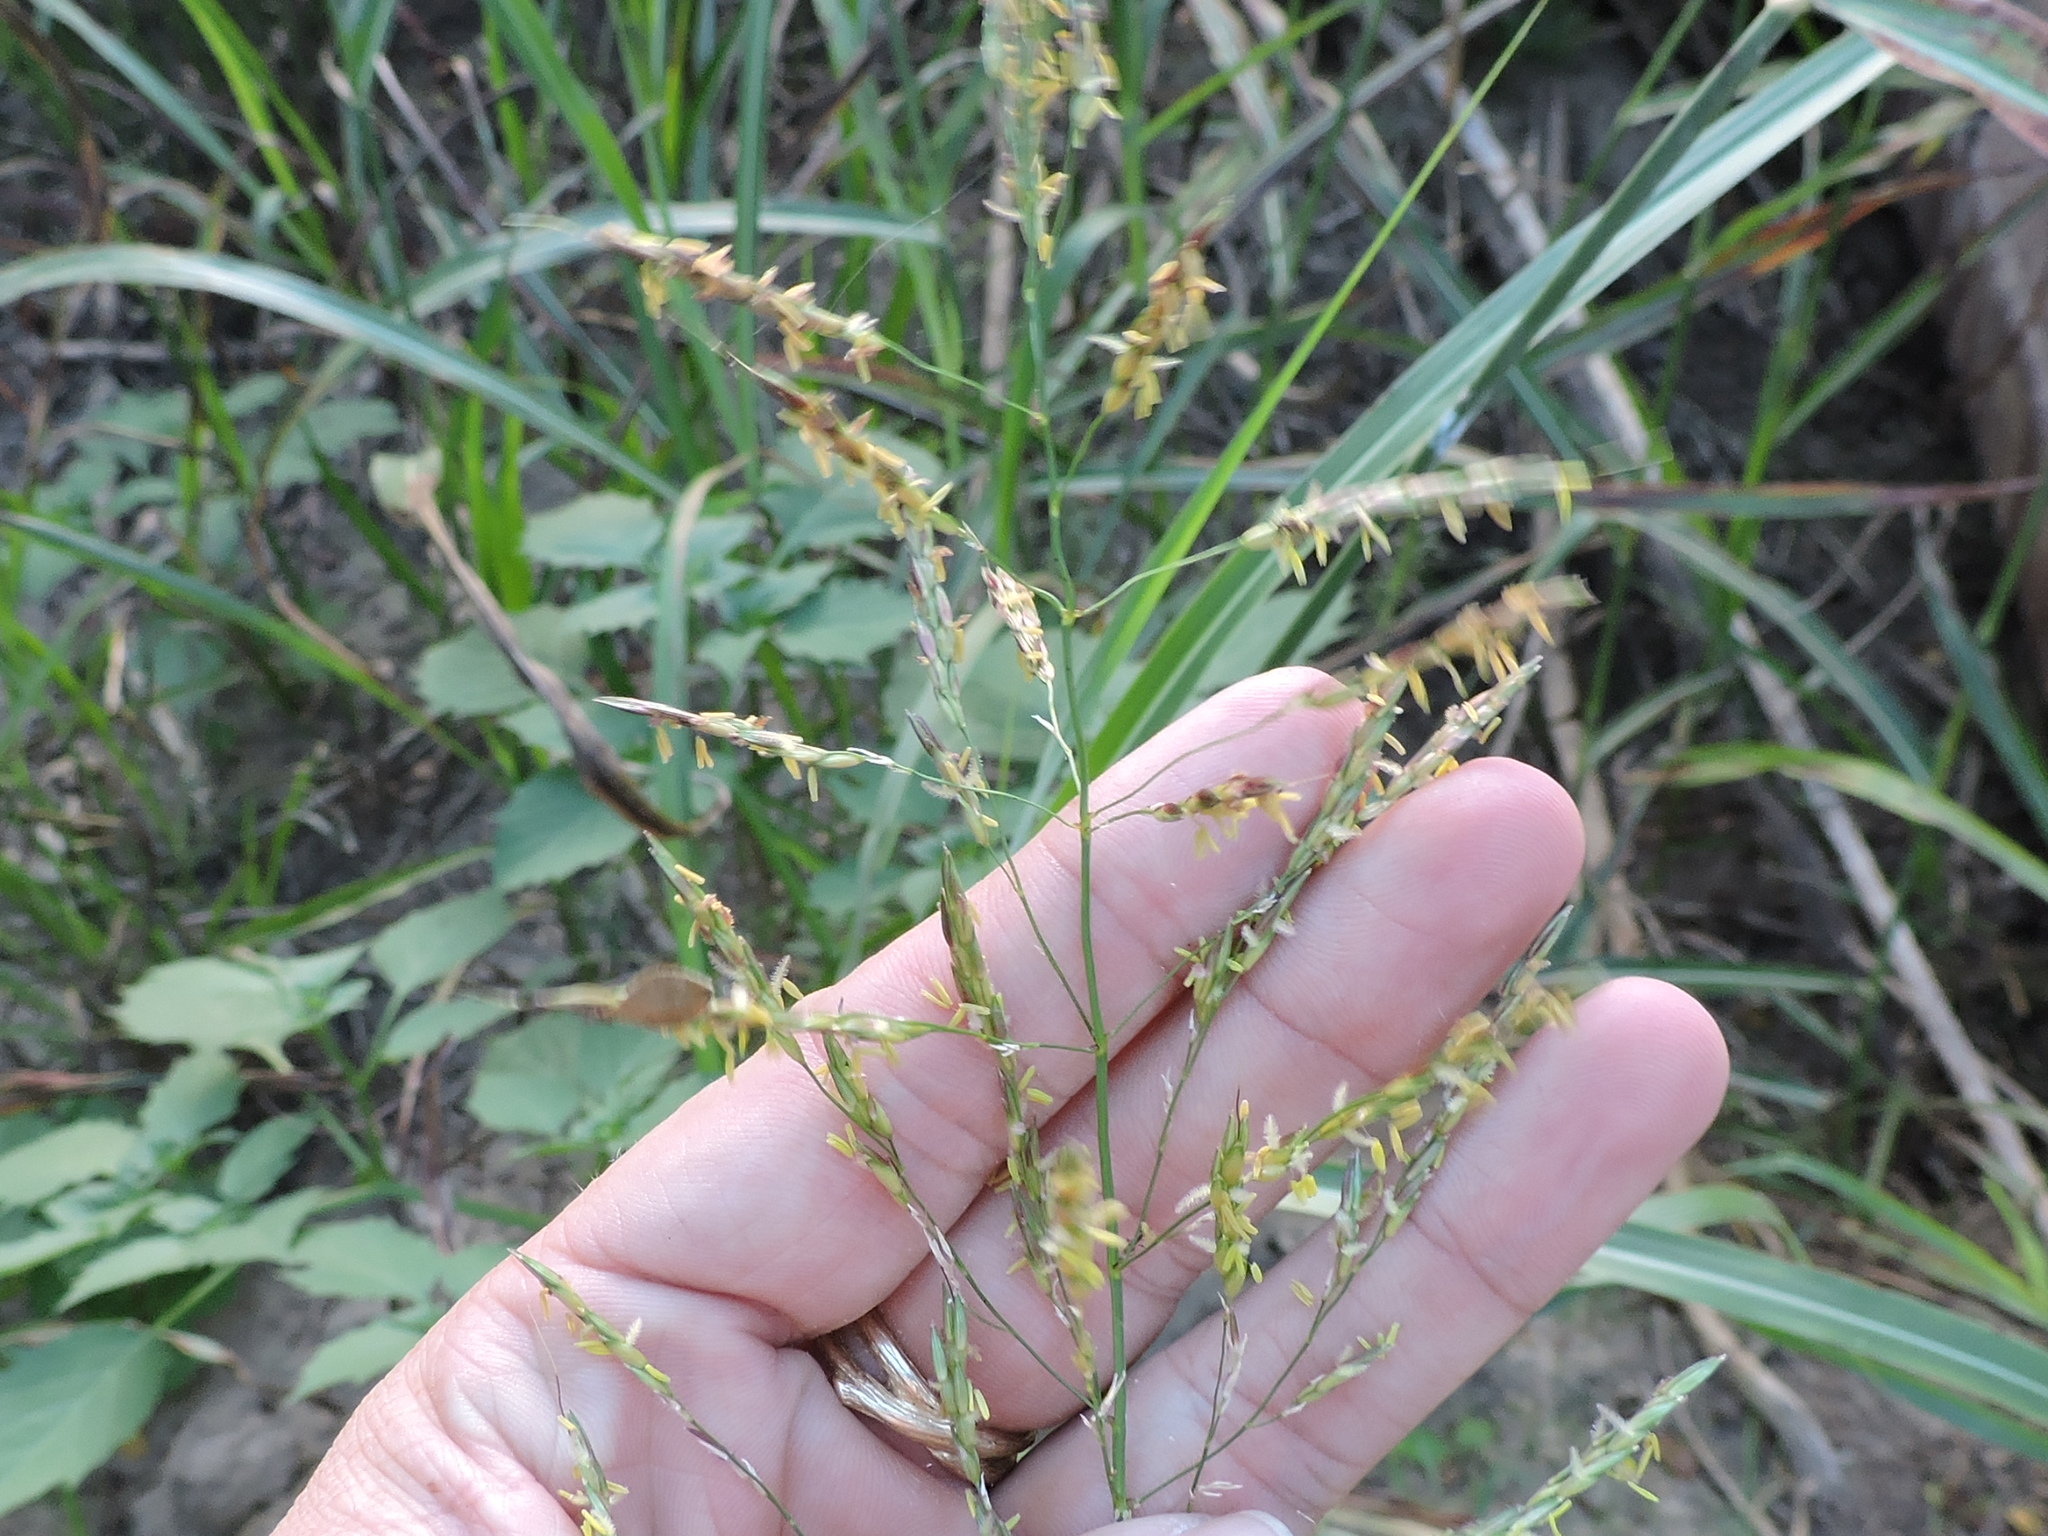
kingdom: Plantae
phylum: Tracheophyta
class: Liliopsida
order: Poales
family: Poaceae
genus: Sorghum
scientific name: Sorghum halepense
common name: Johnson-grass
